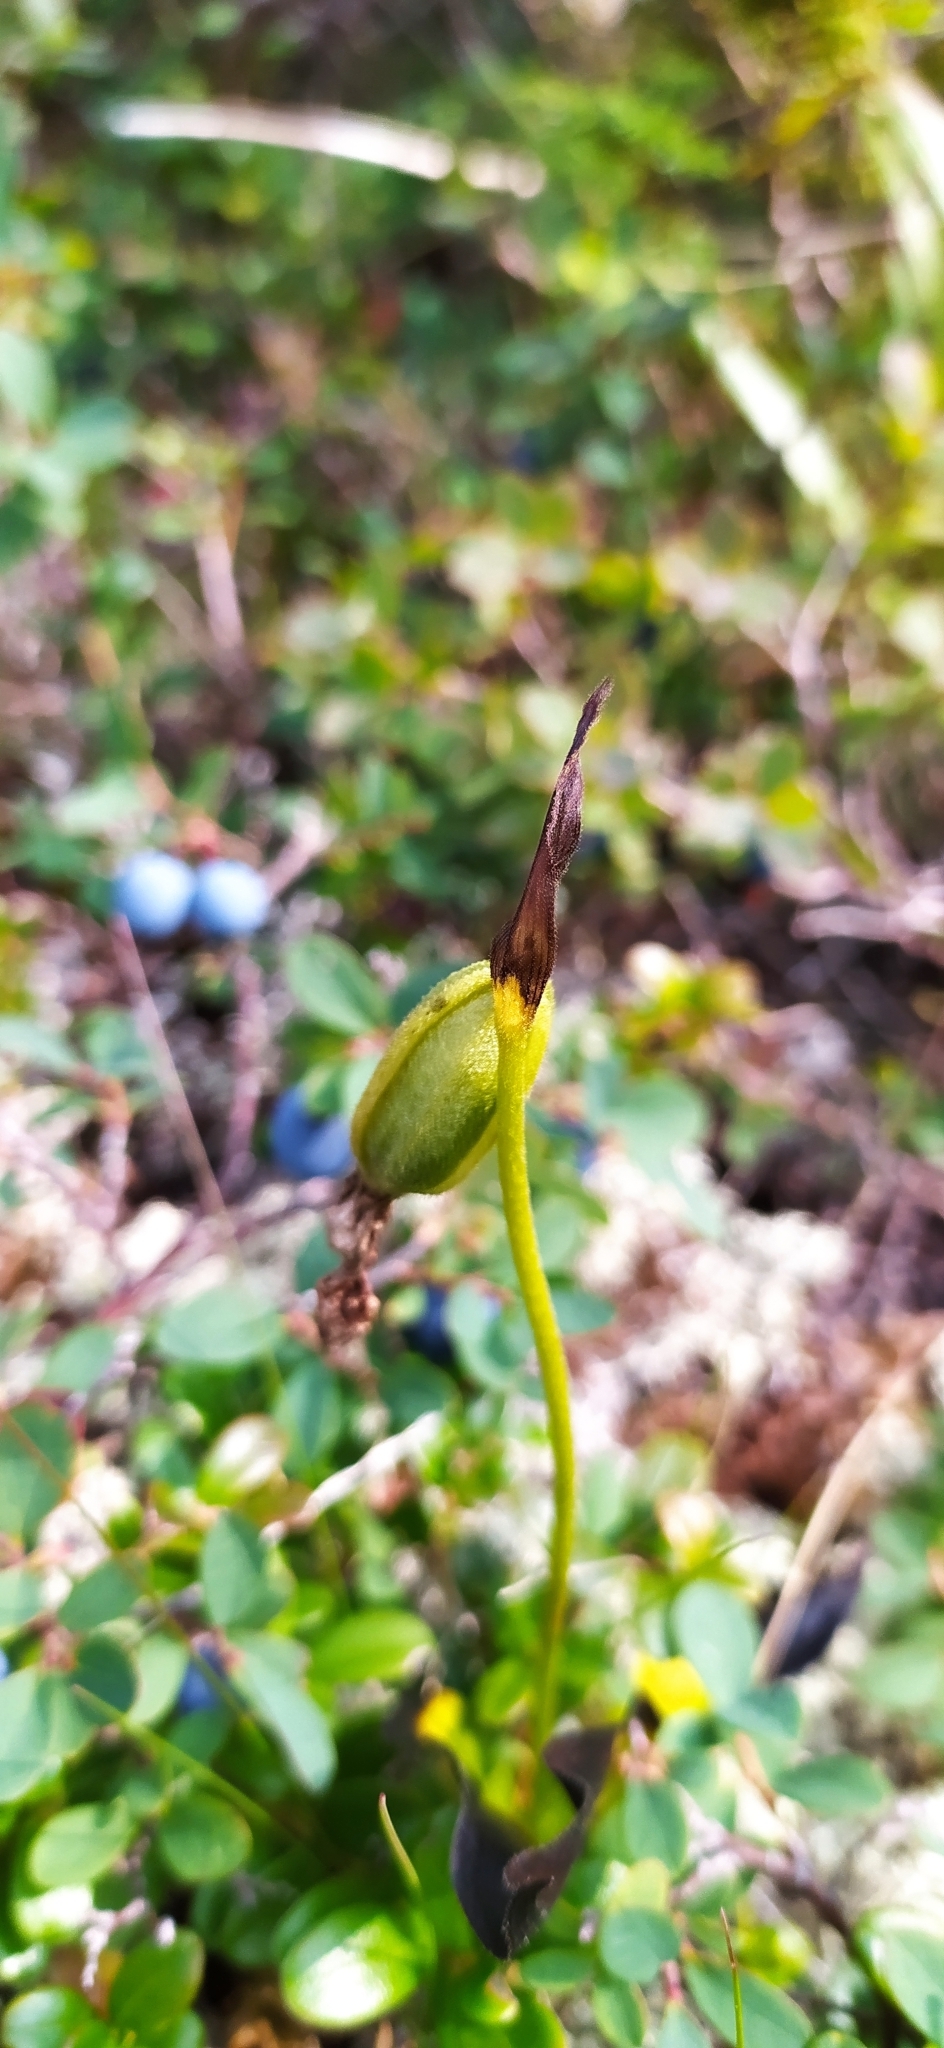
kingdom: Plantae
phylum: Tracheophyta
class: Liliopsida
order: Asparagales
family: Orchidaceae
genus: Cypripedium
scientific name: Cypripedium guttatum
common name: Pink lady slipper
